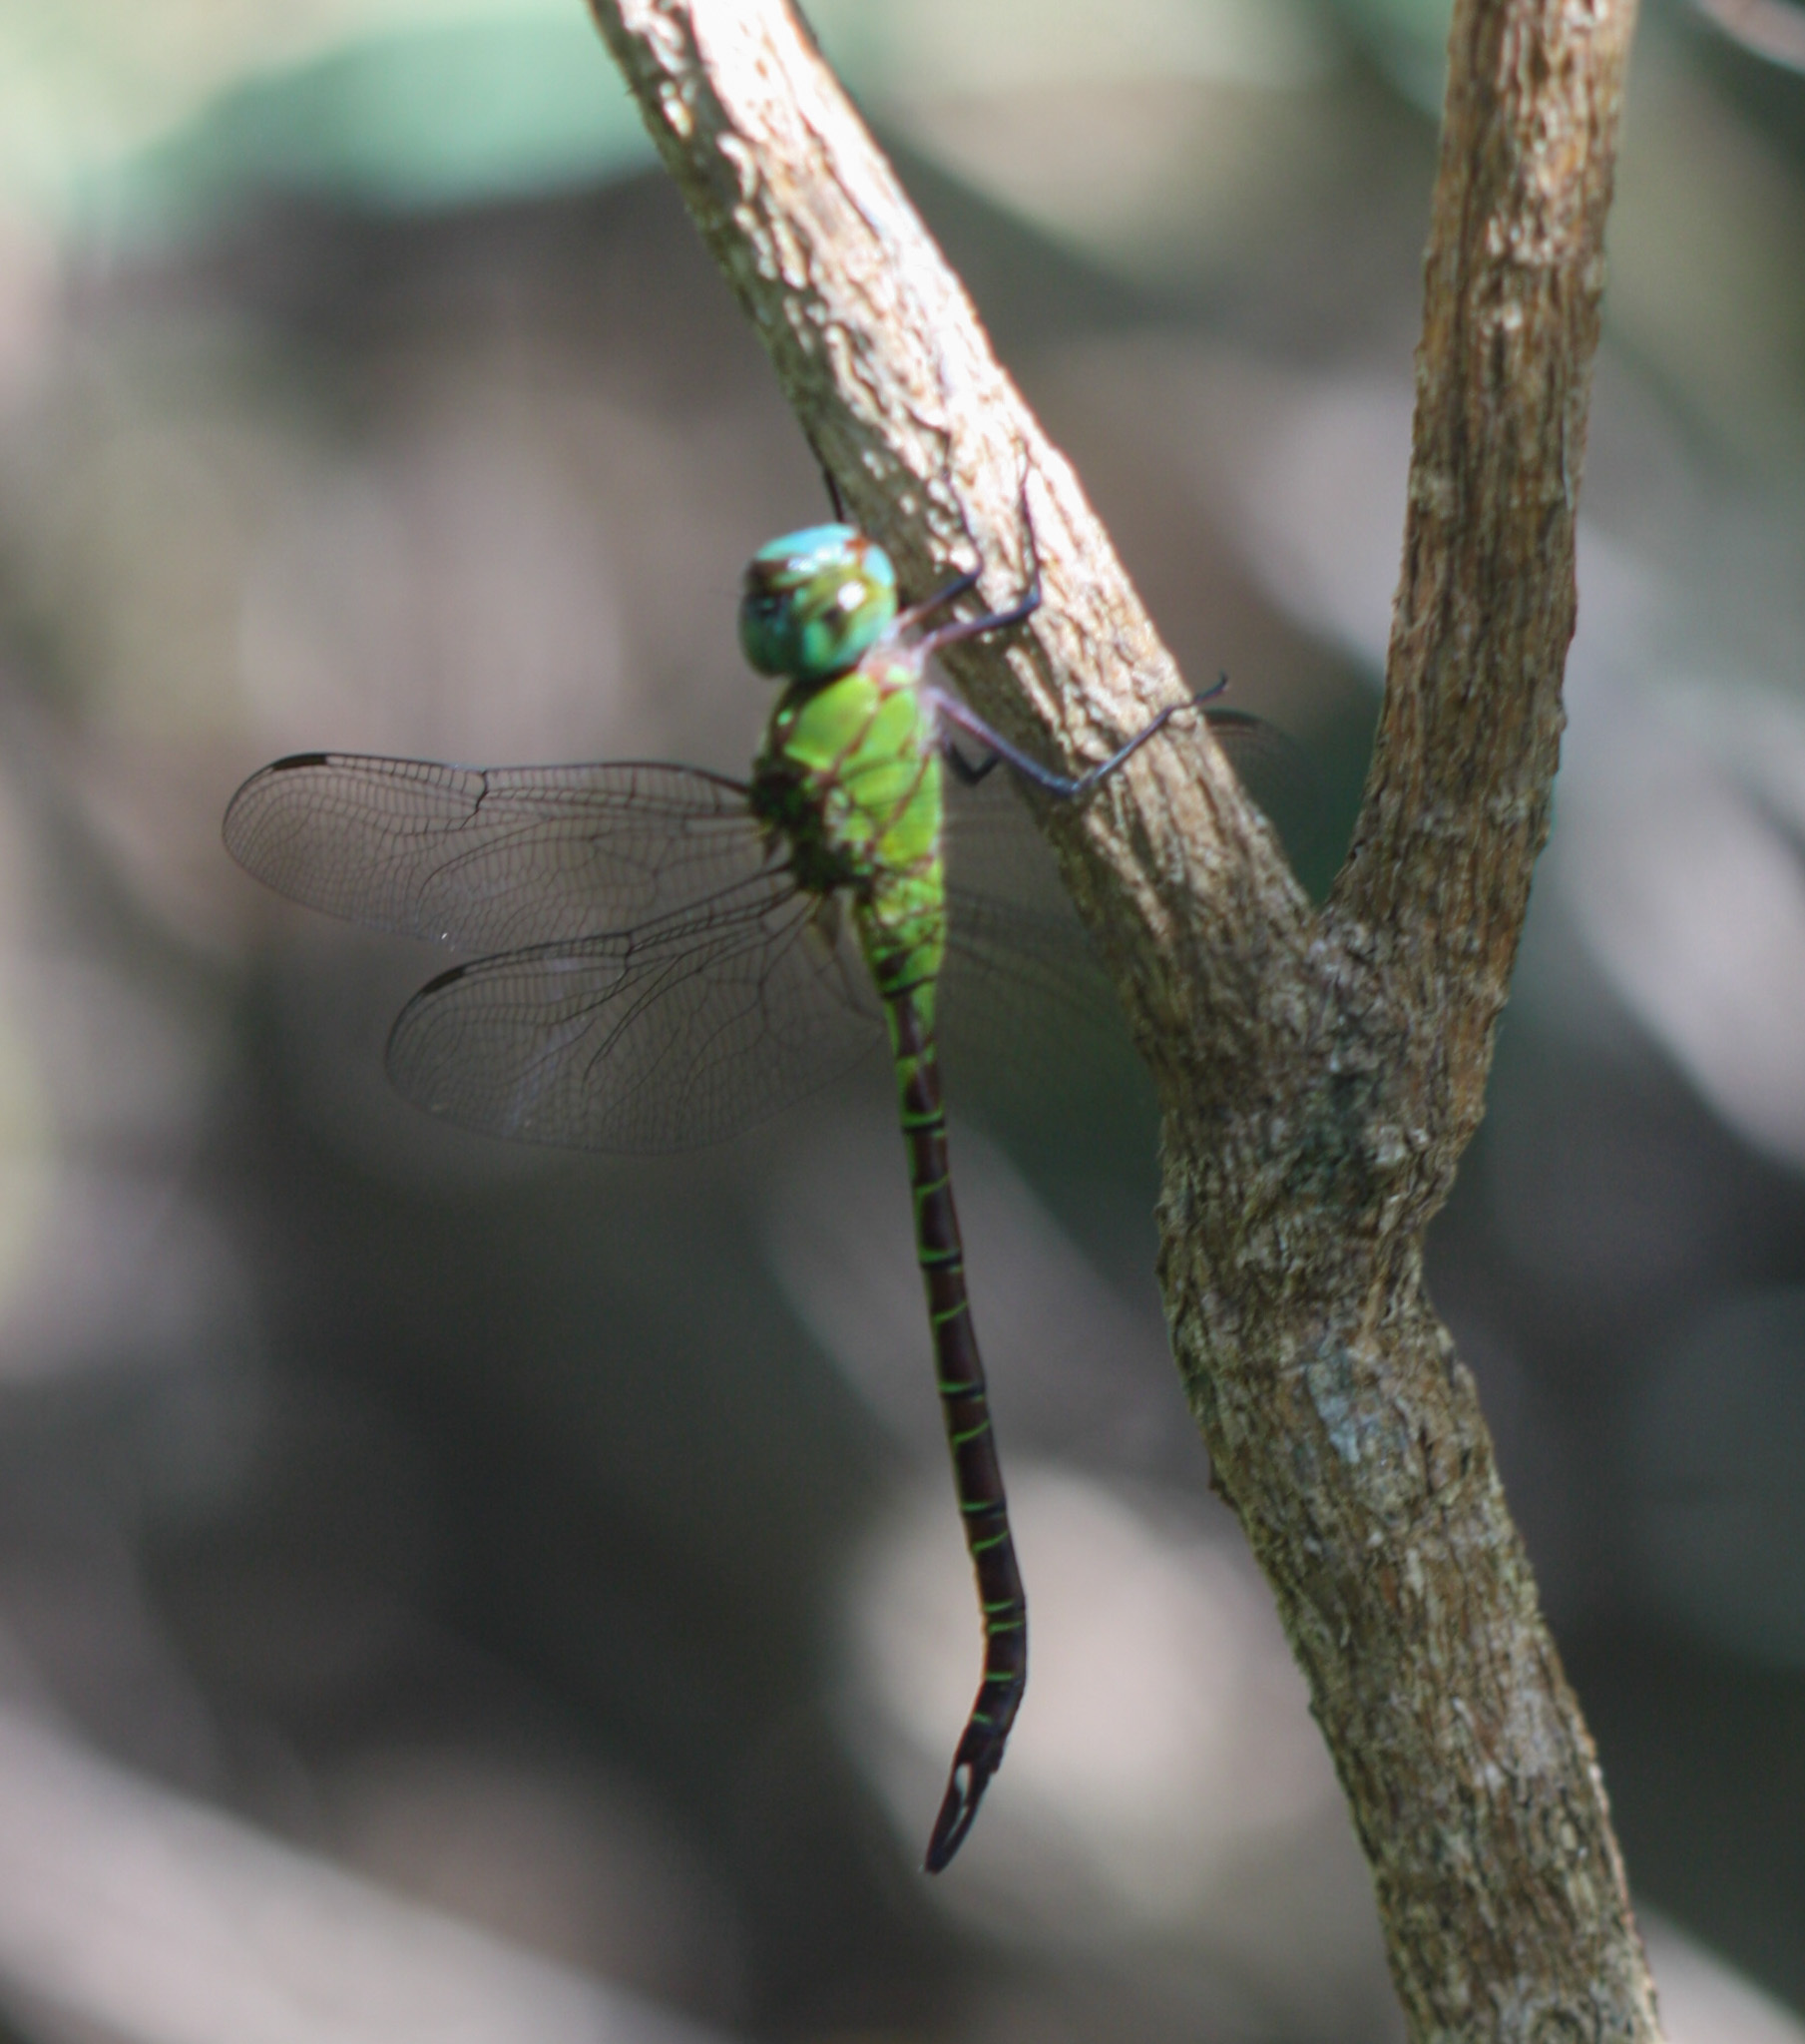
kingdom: Animalia
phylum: Arthropoda
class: Insecta
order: Odonata
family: Aeshnidae
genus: Coryphaeschna
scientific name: Coryphaeschna adnexa
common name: Blue-faced darner
